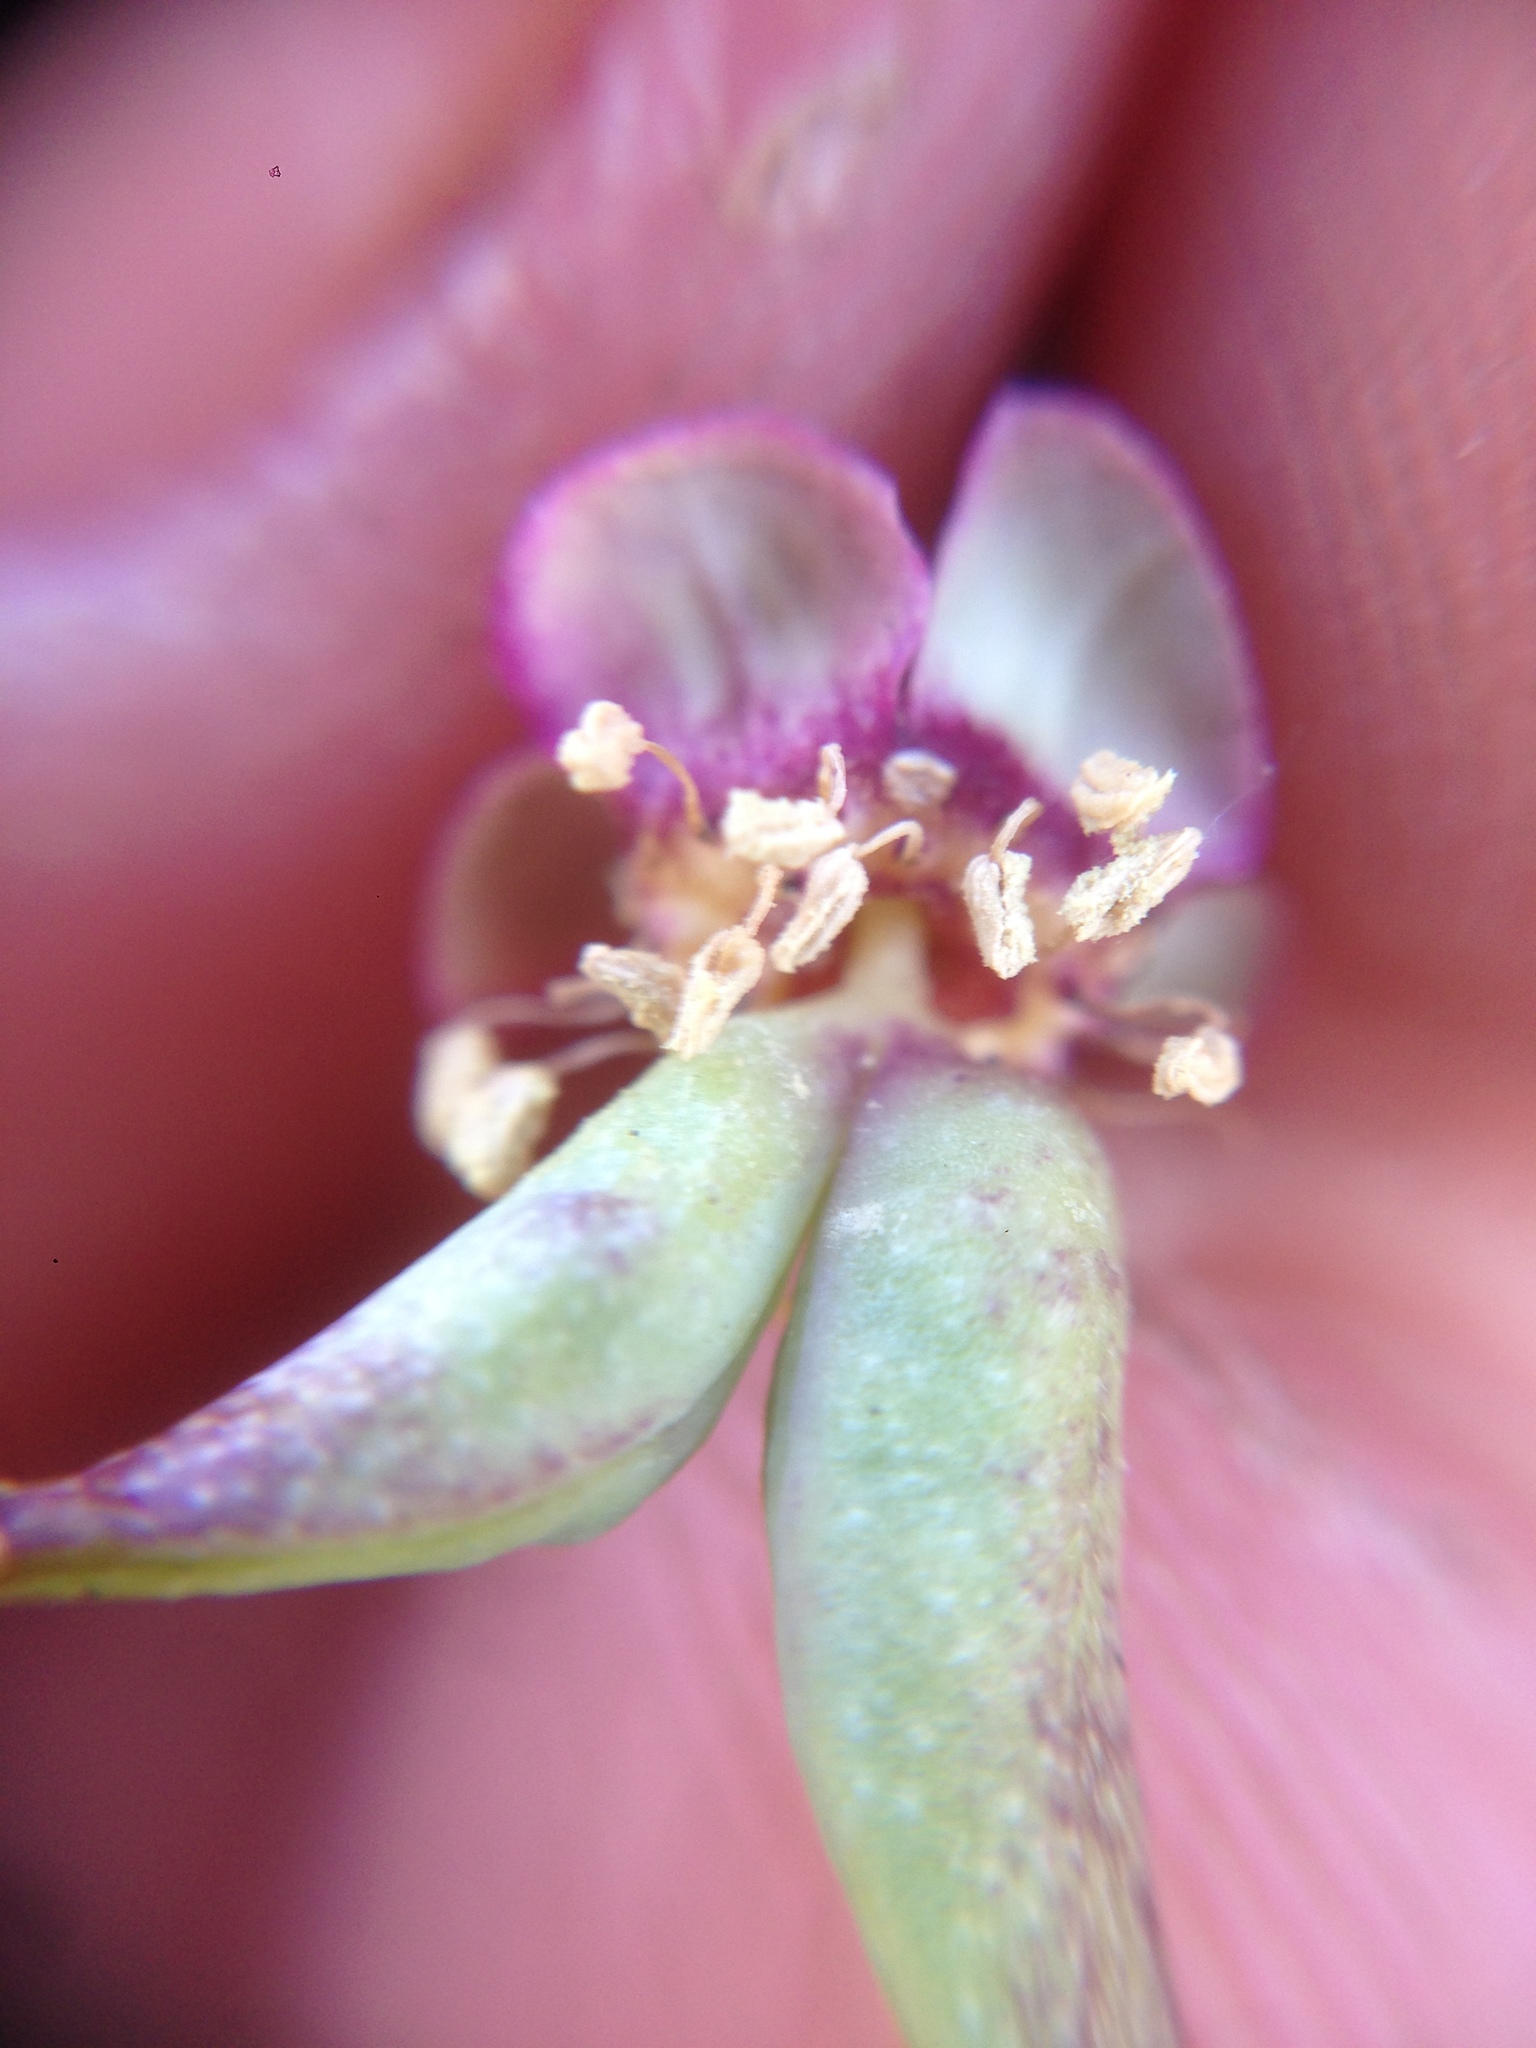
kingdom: Plantae
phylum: Tracheophyta
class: Magnoliopsida
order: Crossosomatales
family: Crossosomataceae
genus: Crossosoma
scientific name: Crossosoma bigelovii
